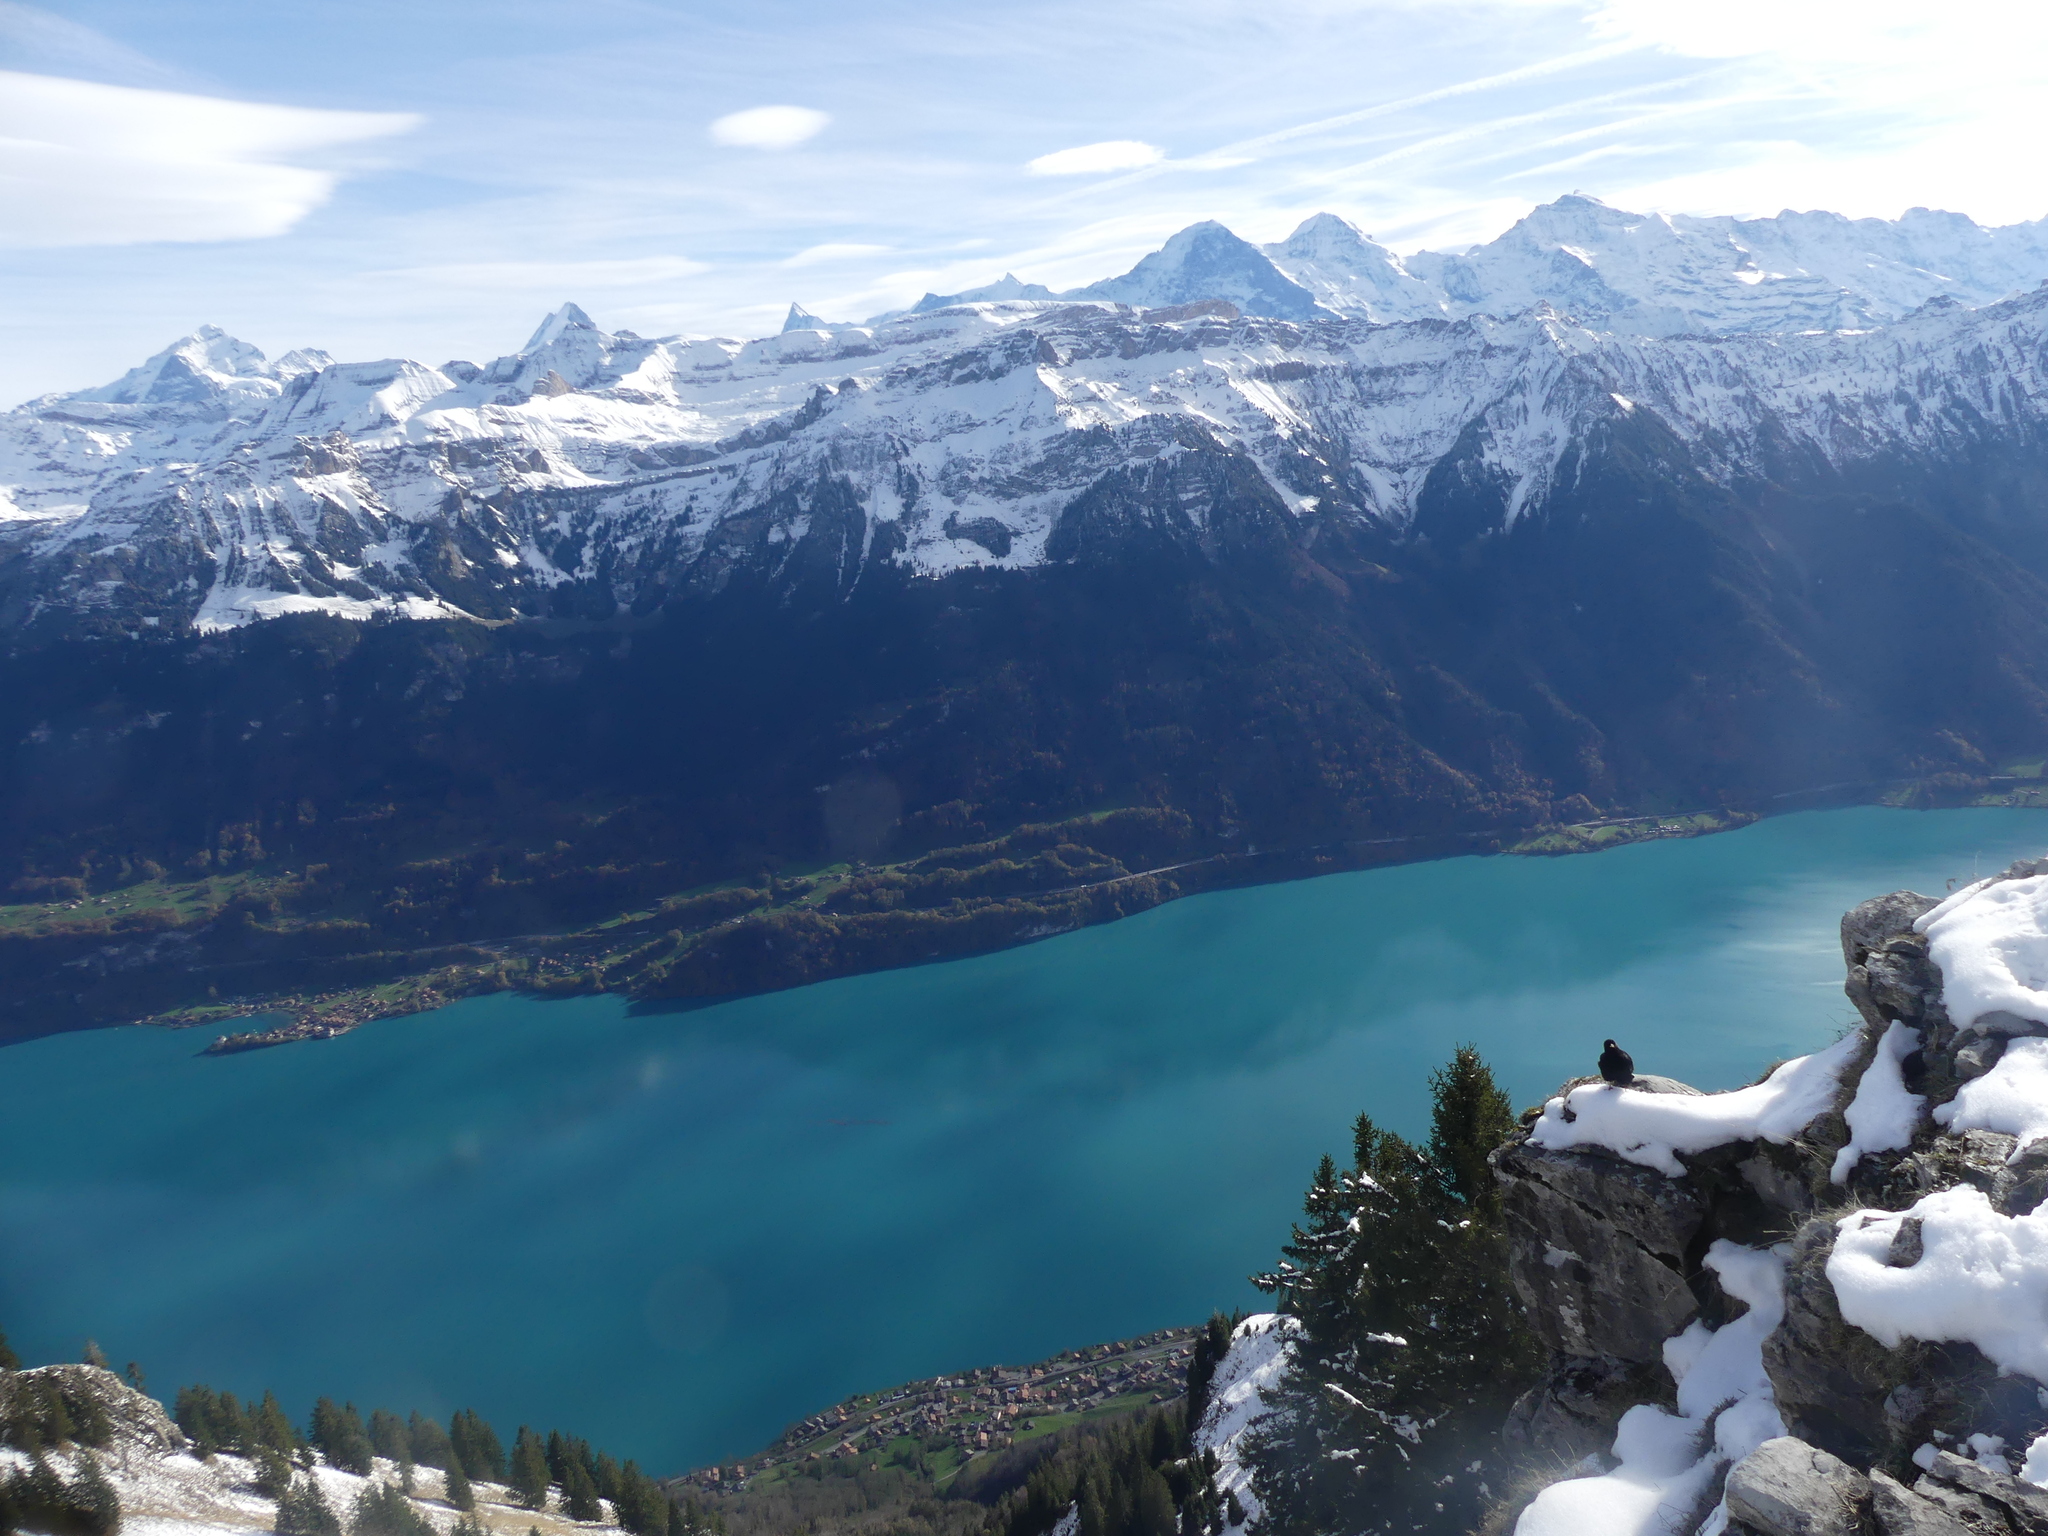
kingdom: Animalia
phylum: Chordata
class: Aves
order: Passeriformes
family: Corvidae
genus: Pyrrhocorax
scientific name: Pyrrhocorax graculus
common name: Alpine chough
